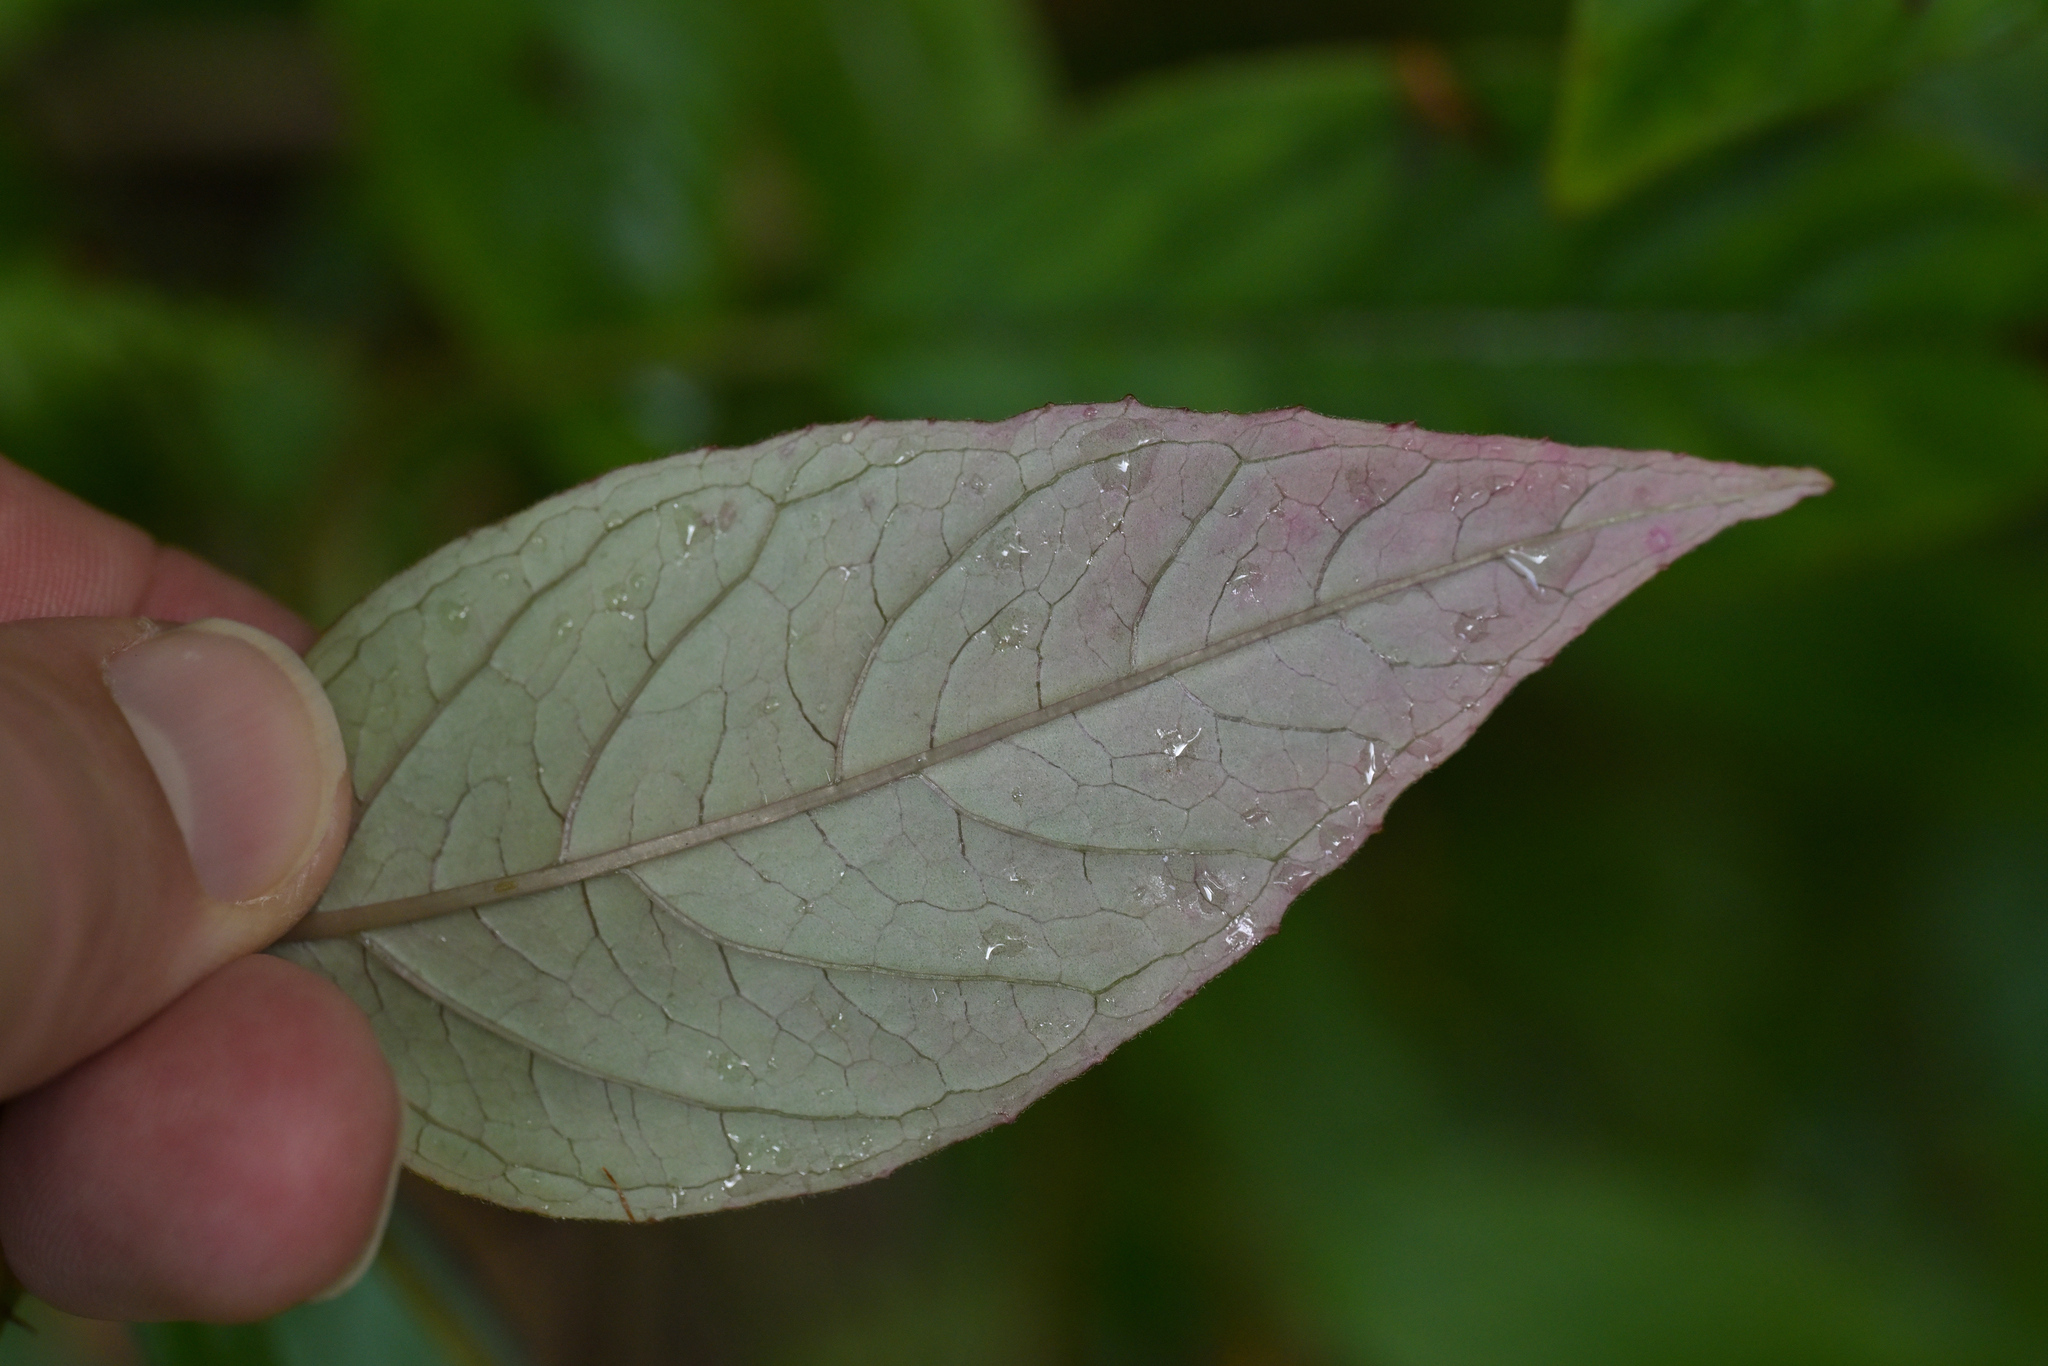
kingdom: Plantae
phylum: Tracheophyta
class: Magnoliopsida
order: Myrtales
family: Onagraceae
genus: Fuchsia
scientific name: Fuchsia excorticata
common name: Tree fuchsia
